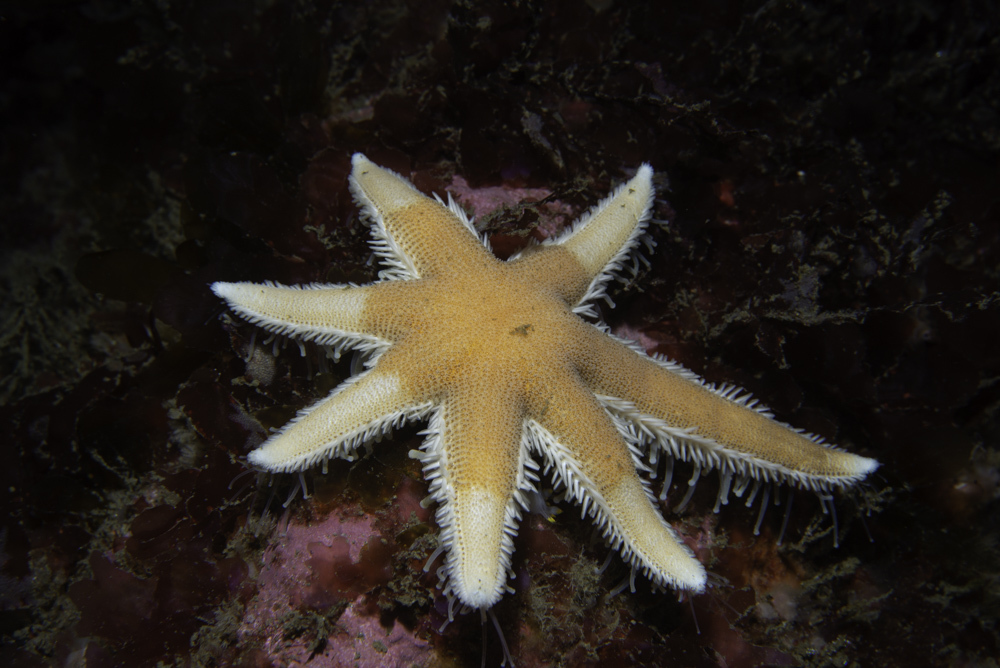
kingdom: Animalia
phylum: Echinodermata
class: Asteroidea
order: Paxillosida
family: Luidiidae
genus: Luidia
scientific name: Luidia ciliaris
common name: Seven-armed starfish
